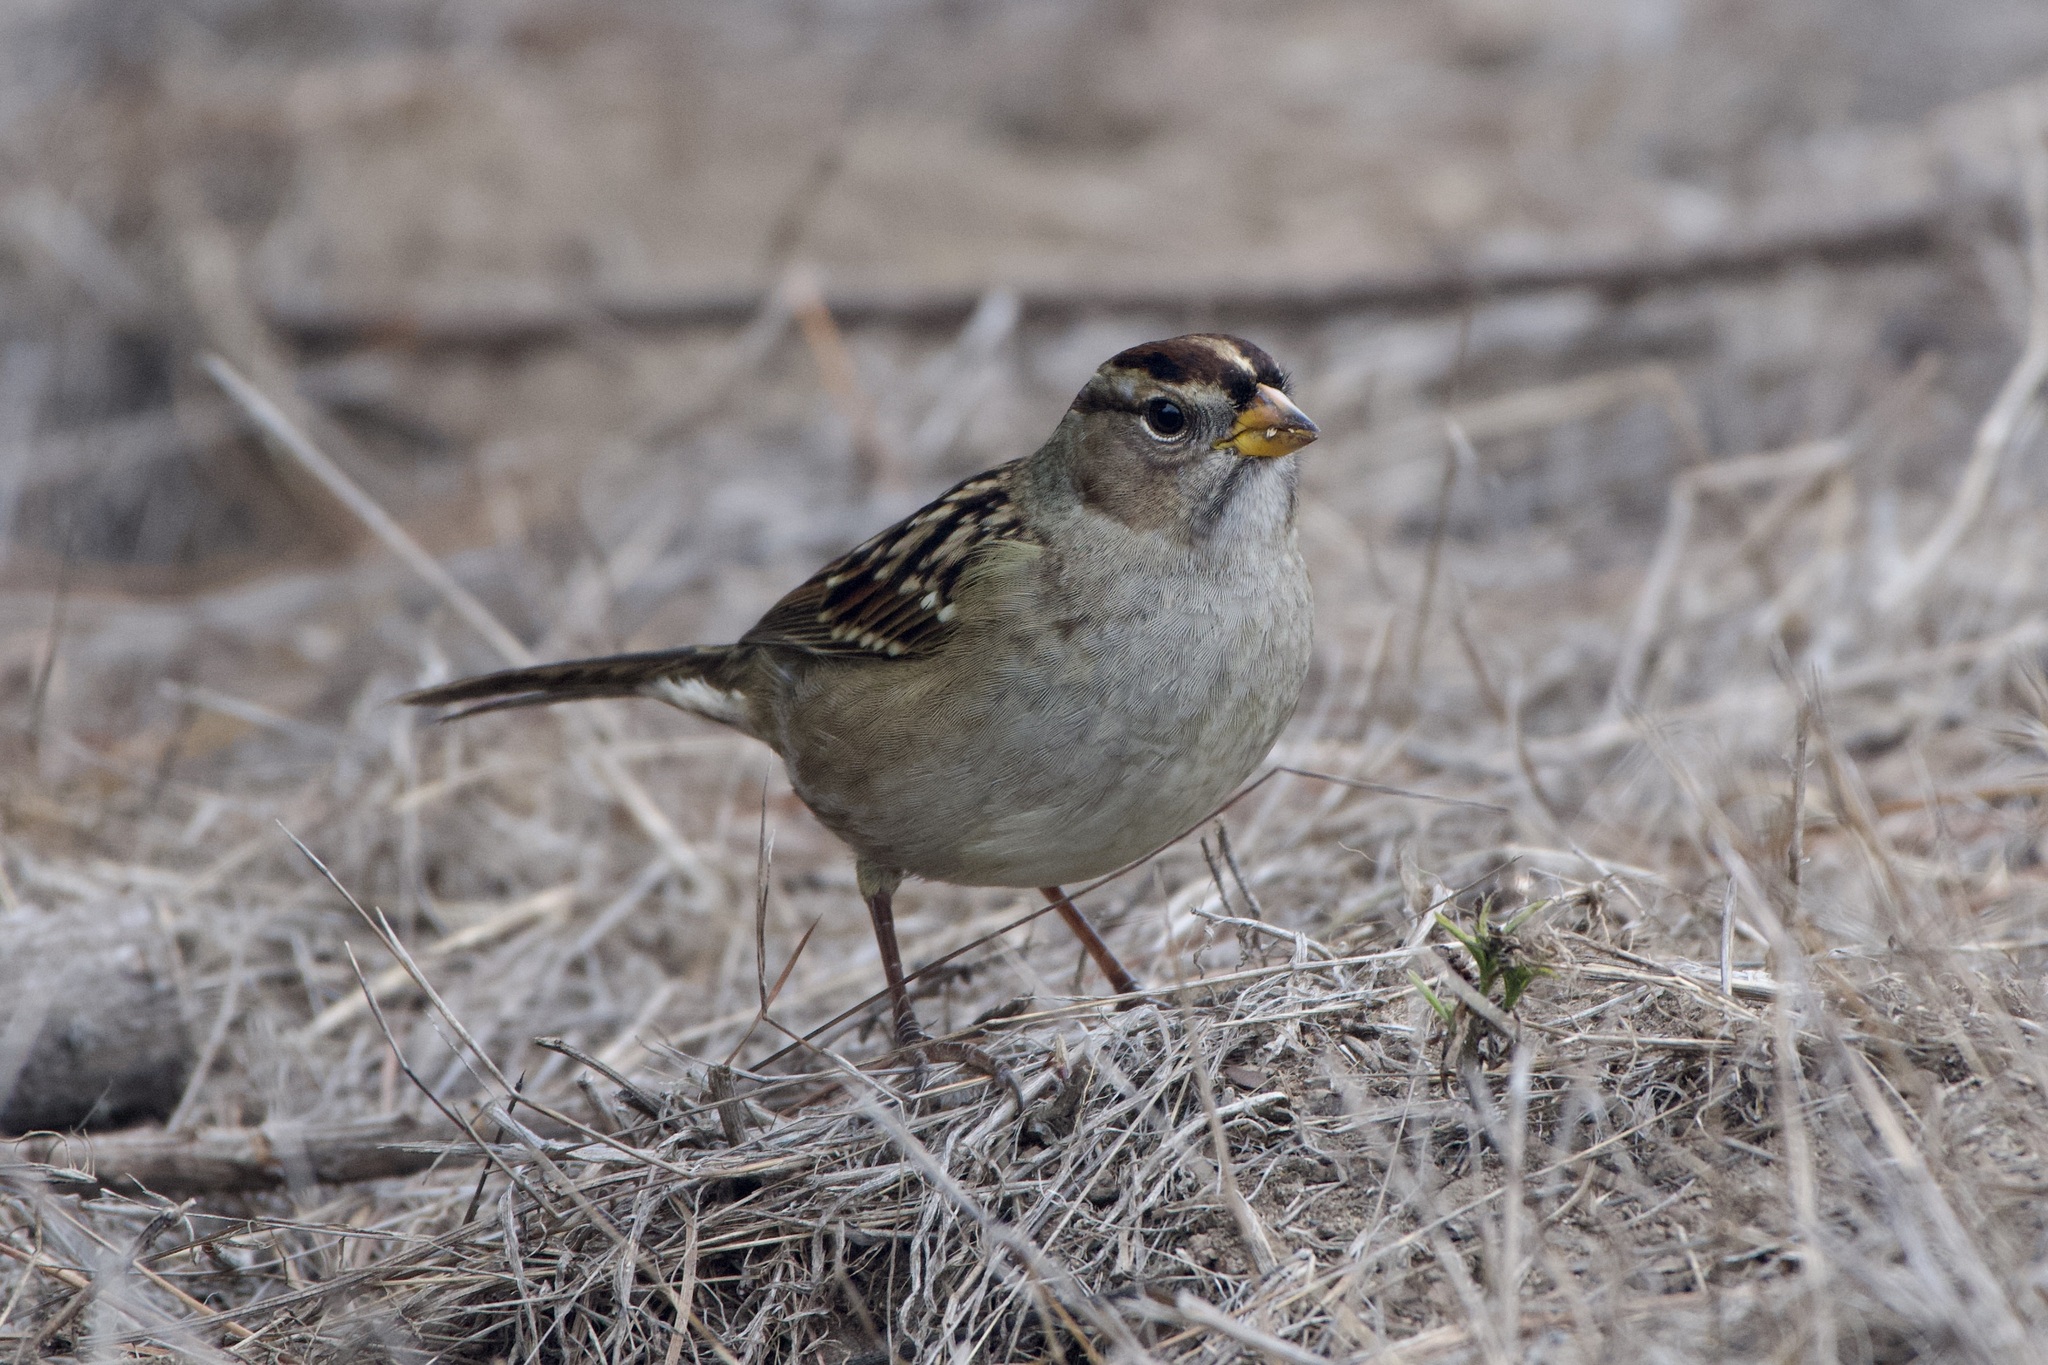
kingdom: Animalia
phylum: Chordata
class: Aves
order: Passeriformes
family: Passerellidae
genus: Zonotrichia
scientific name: Zonotrichia leucophrys
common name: White-crowned sparrow
